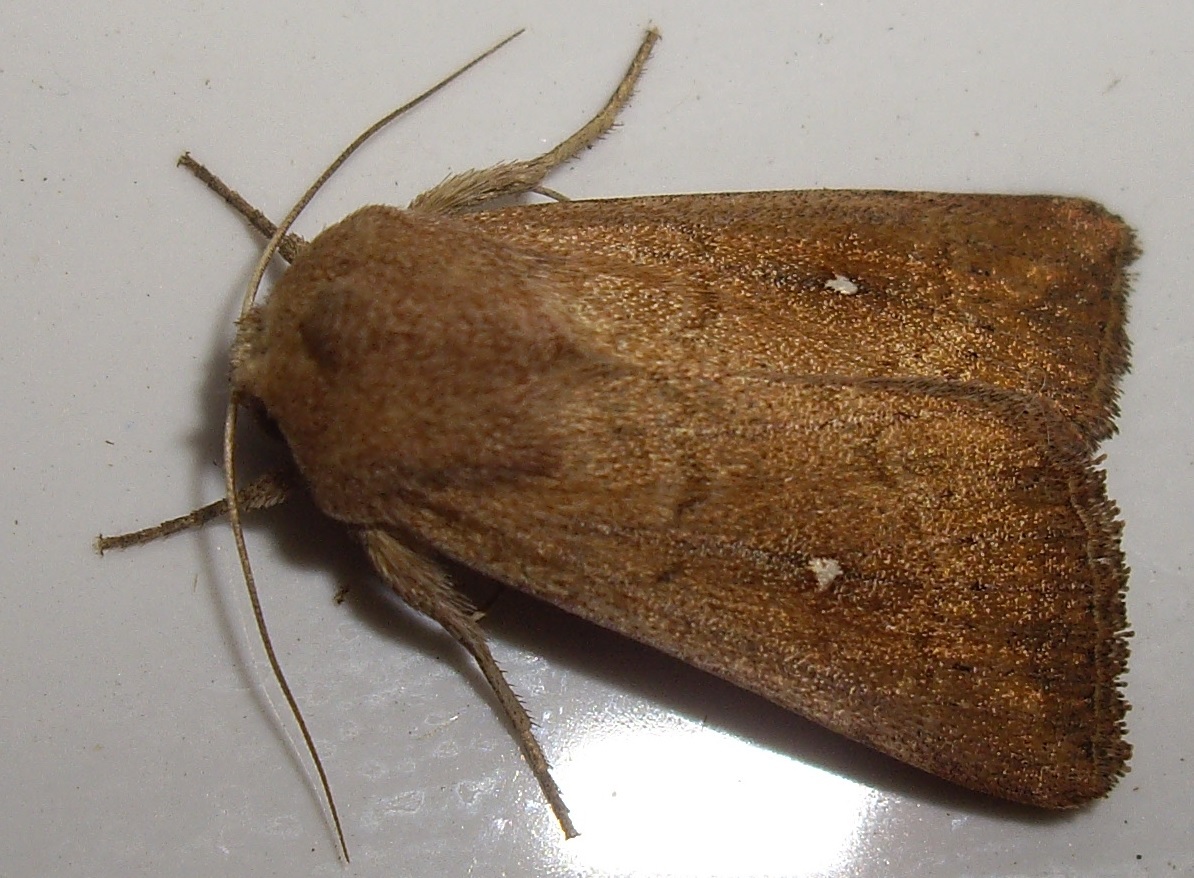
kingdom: Animalia
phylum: Arthropoda
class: Insecta
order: Lepidoptera
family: Noctuidae
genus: Mythimna
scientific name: Mythimna albipuncta
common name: White-point
